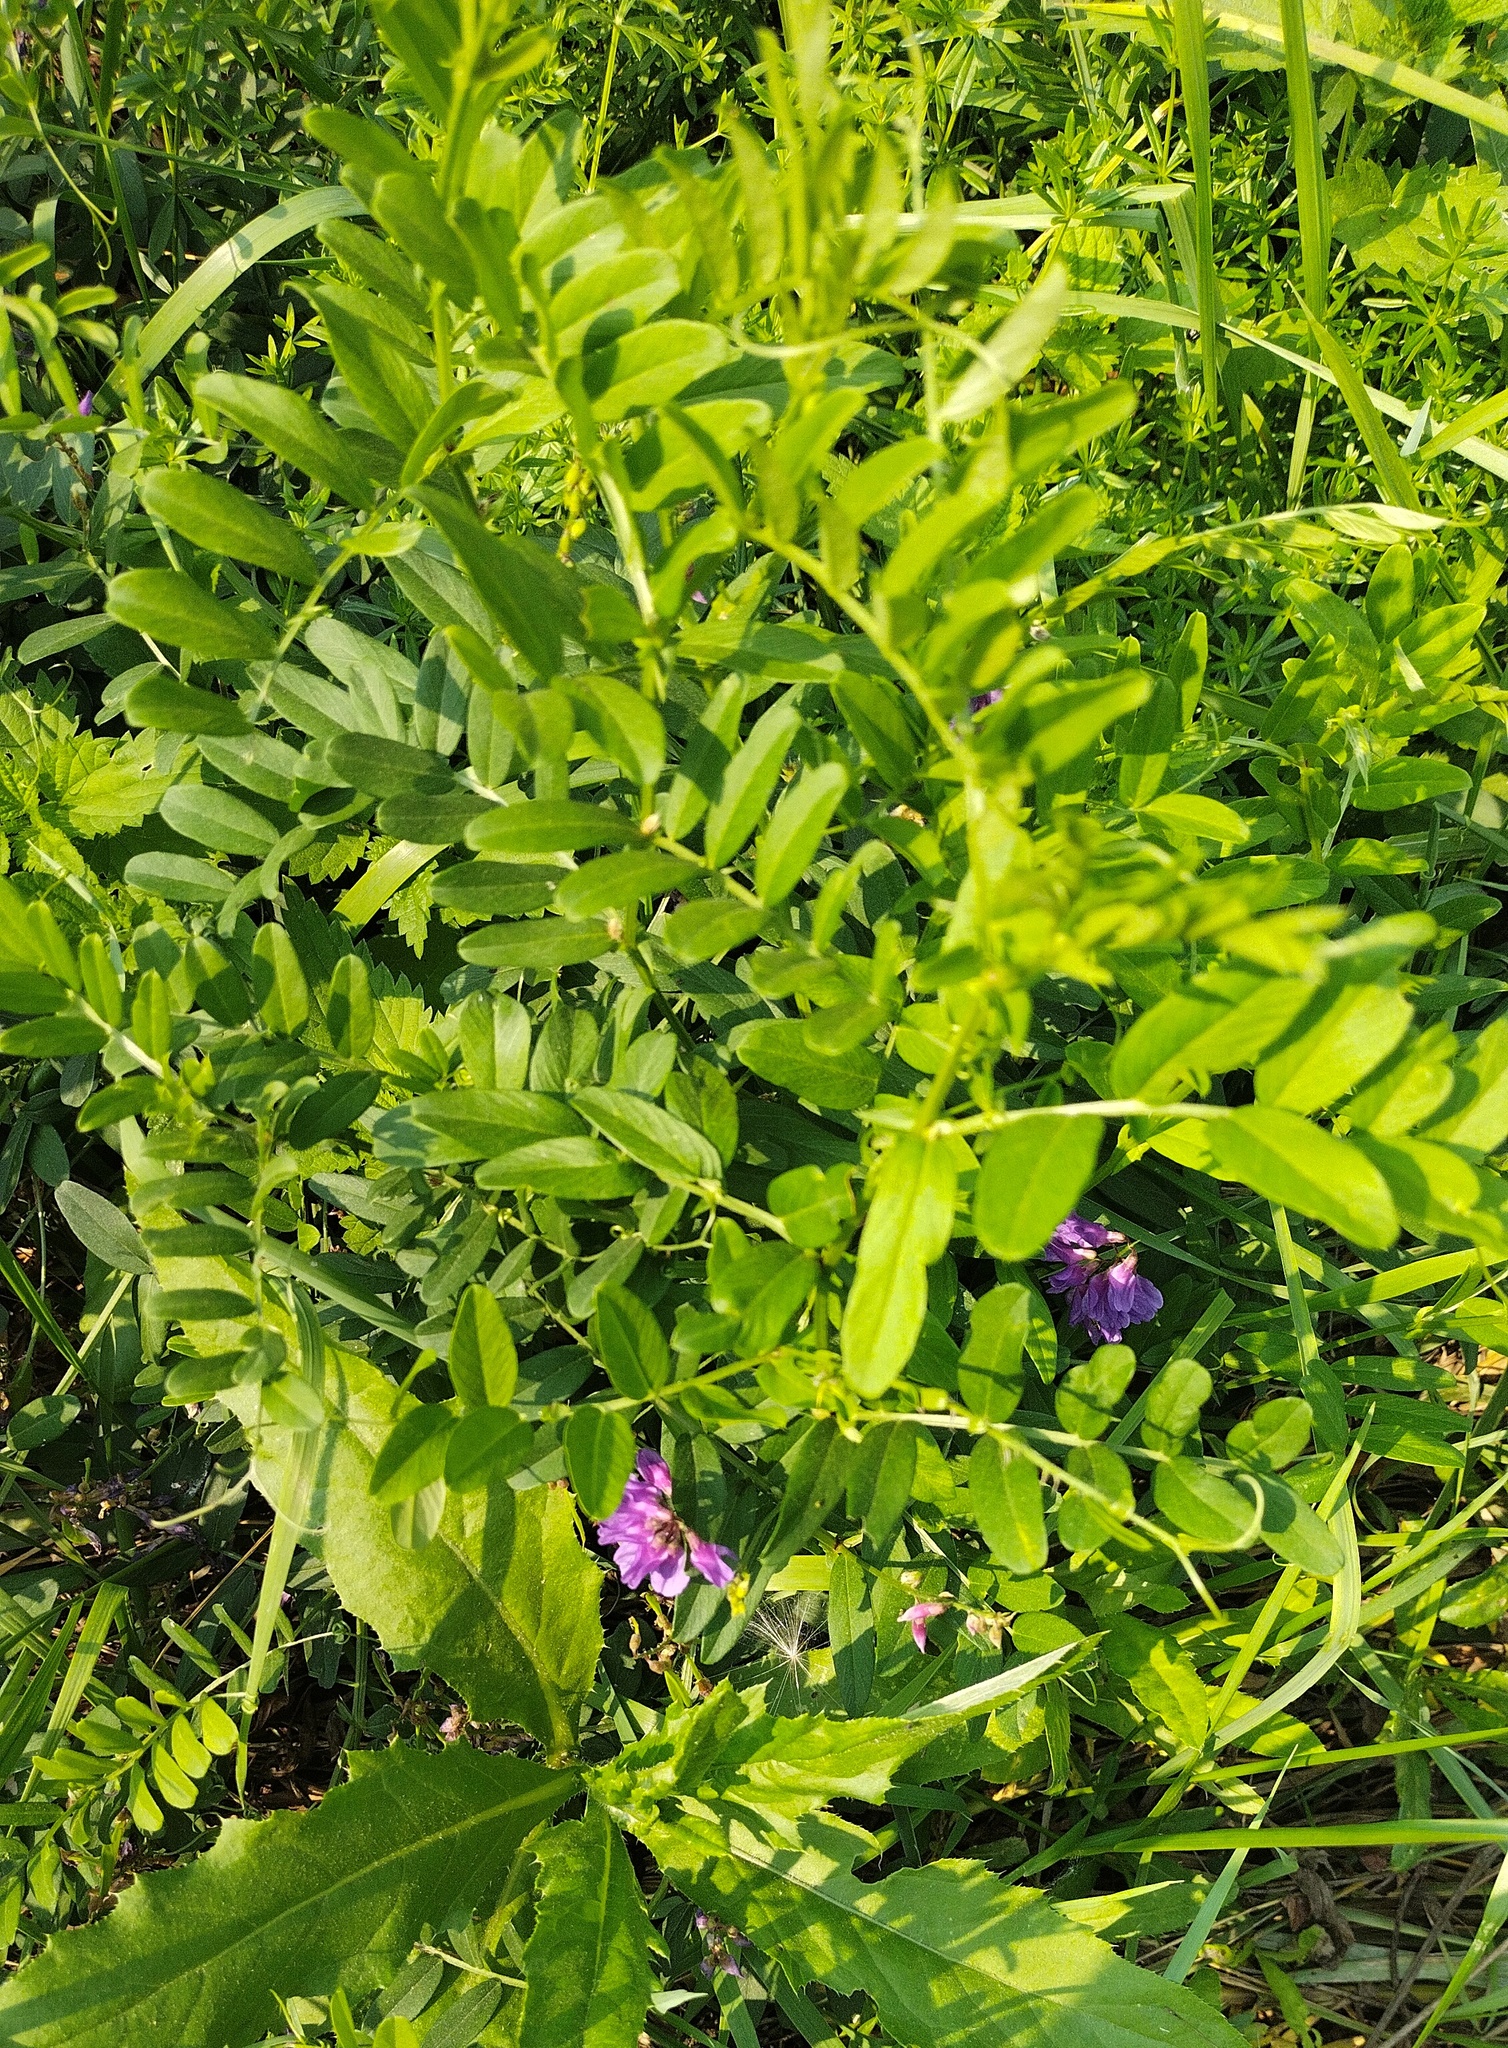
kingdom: Plantae
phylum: Tracheophyta
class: Magnoliopsida
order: Fabales
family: Fabaceae
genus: Vicia
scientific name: Vicia amoena
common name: Cheder ebs
